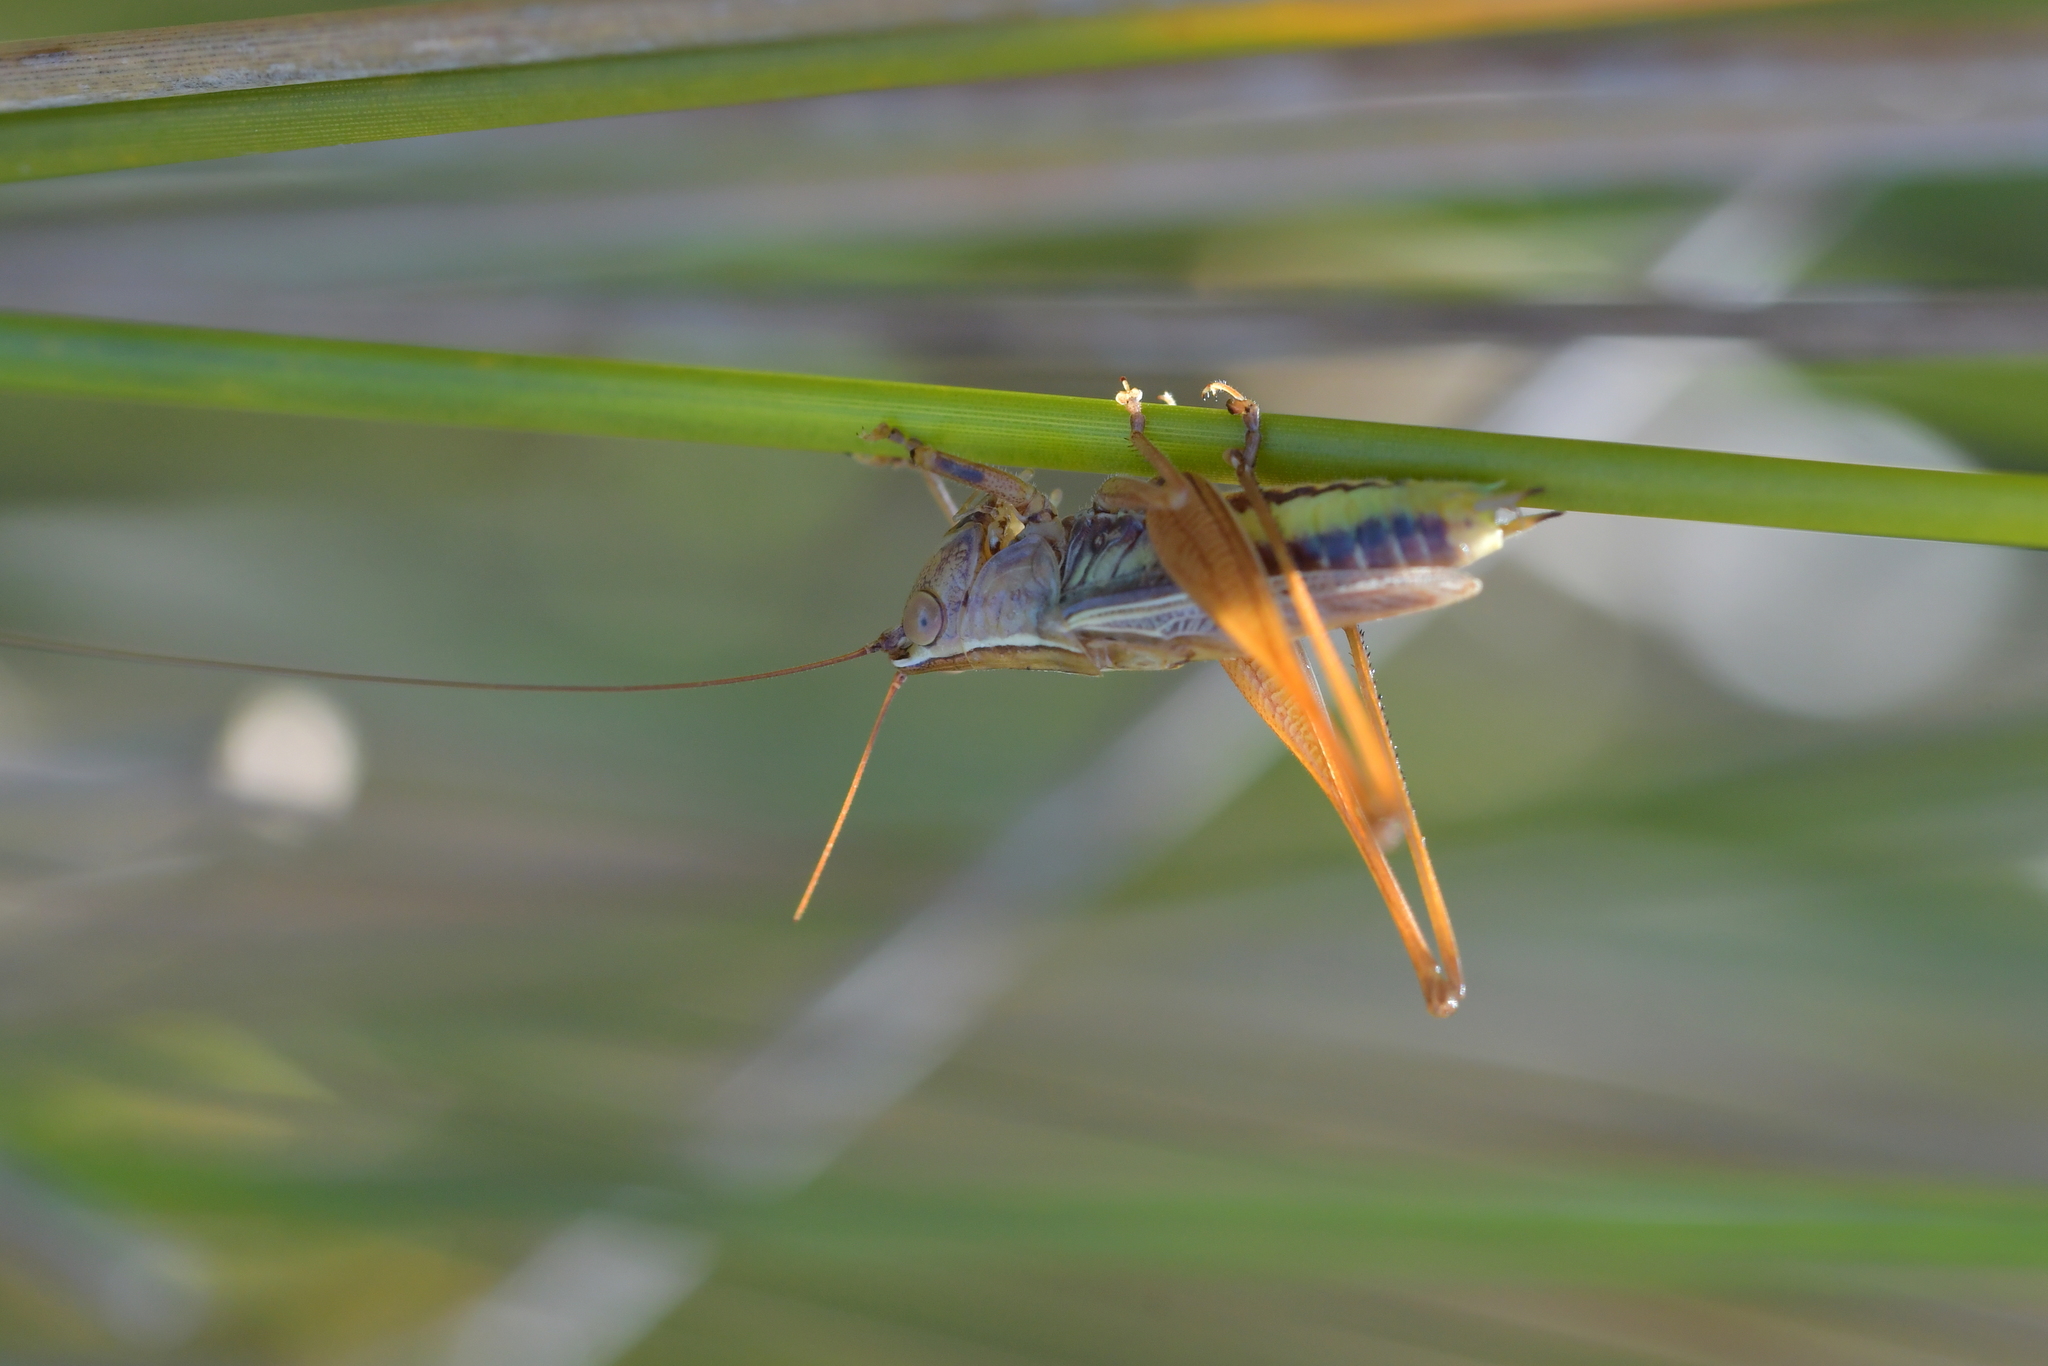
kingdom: Animalia
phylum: Arthropoda
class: Insecta
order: Orthoptera
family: Tettigoniidae
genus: Conocephalus
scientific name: Conocephalus albescens
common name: Whitish meadow katydid
